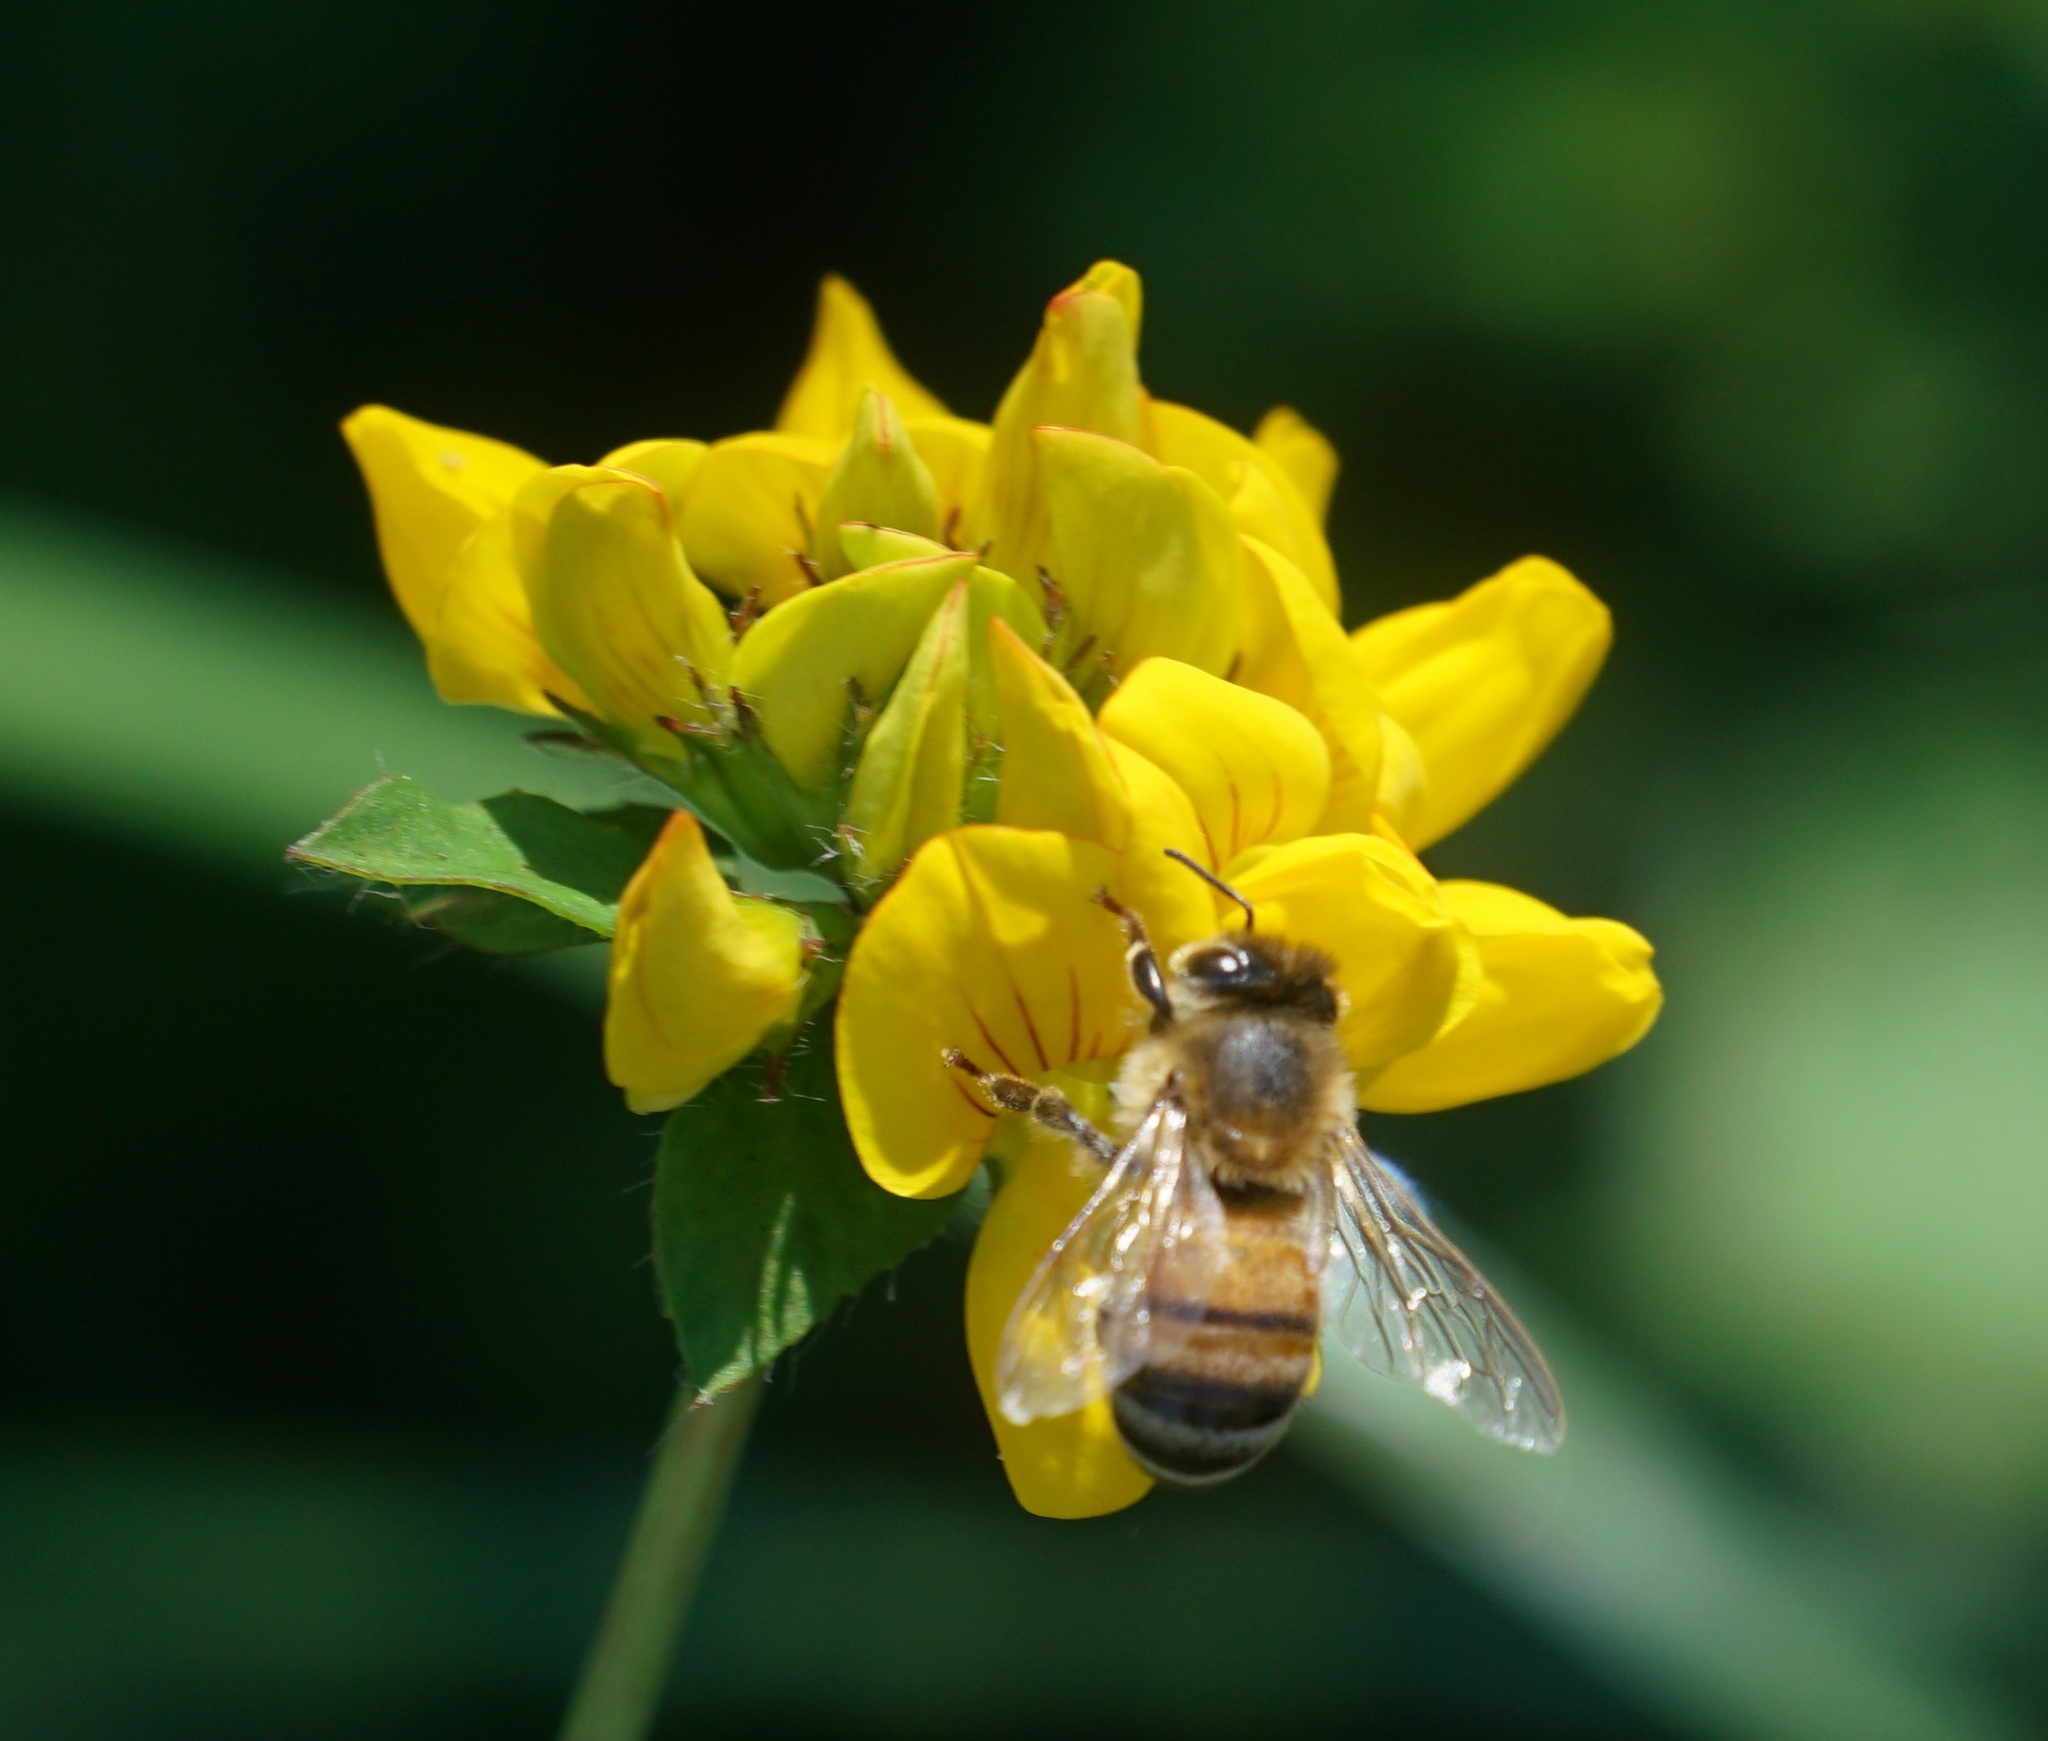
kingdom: Animalia
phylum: Arthropoda
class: Insecta
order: Hymenoptera
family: Apidae
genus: Apis
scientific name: Apis mellifera
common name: Honey bee
